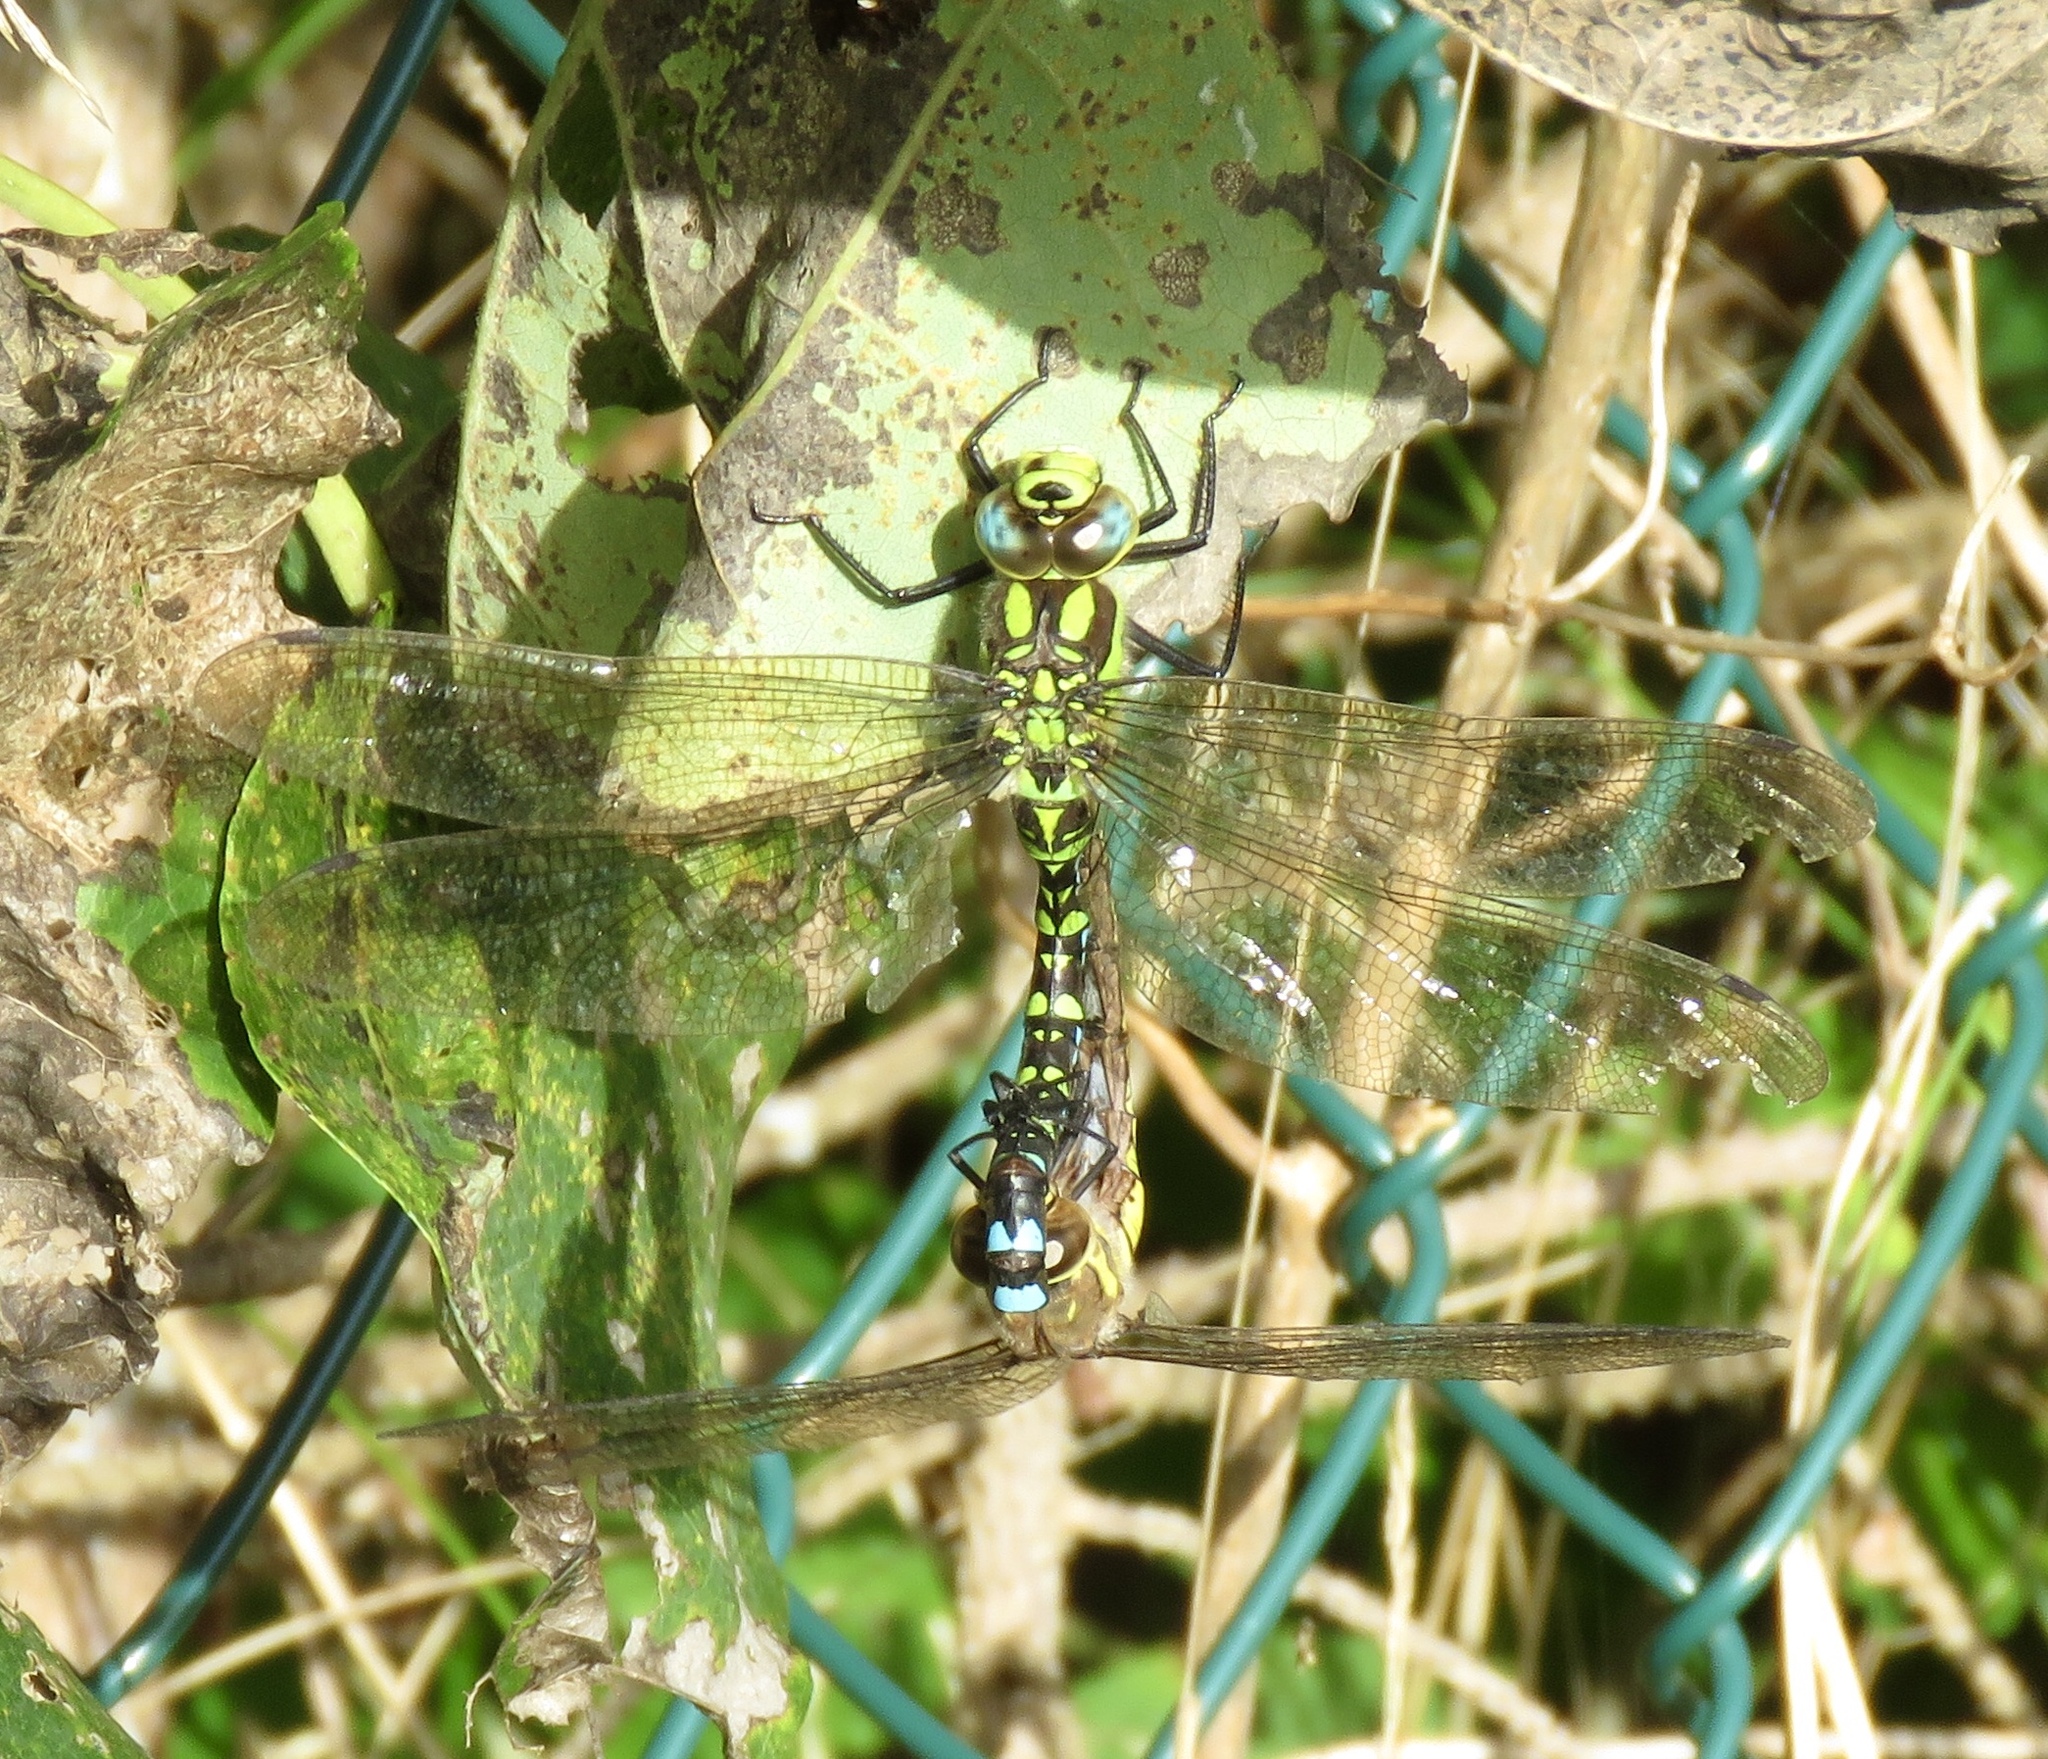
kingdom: Animalia
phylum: Arthropoda
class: Insecta
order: Odonata
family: Aeshnidae
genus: Aeshna
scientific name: Aeshna cyanea
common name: Southern hawker
